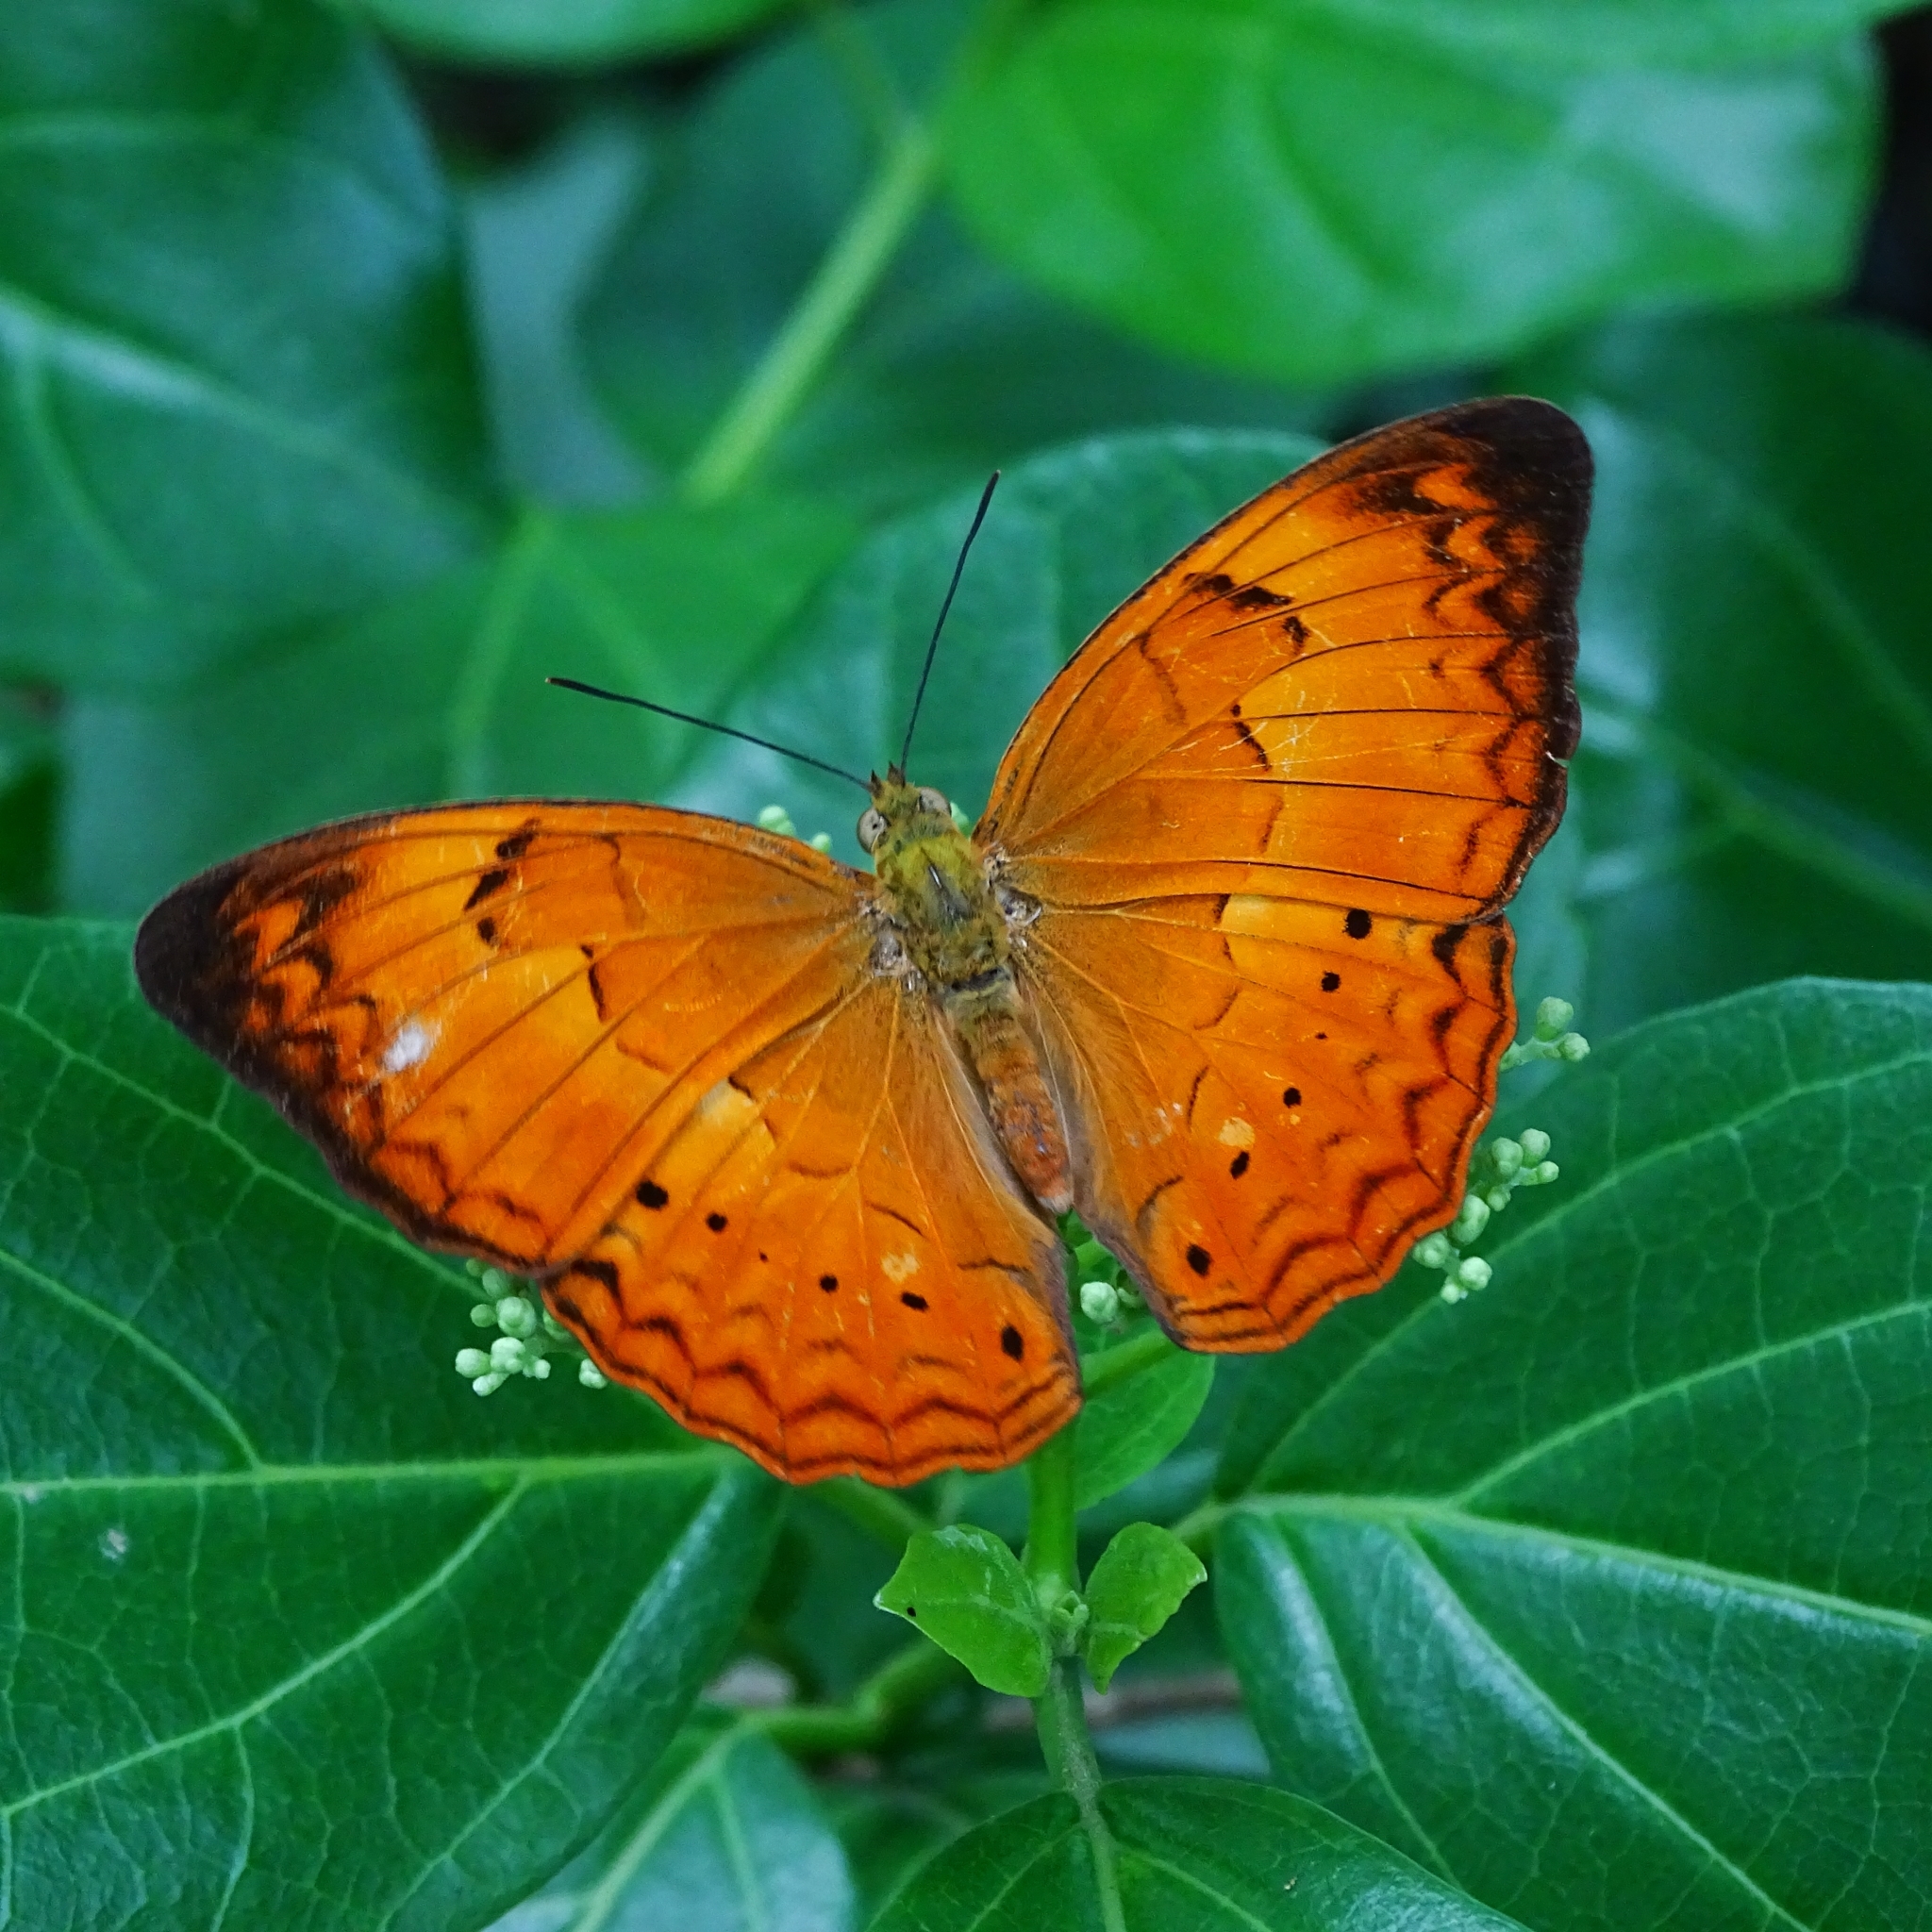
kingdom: Animalia
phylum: Arthropoda
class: Insecta
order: Lepidoptera
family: Nymphalidae
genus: Cirrochroa
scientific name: Cirrochroa thais
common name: Tamil yeoman
